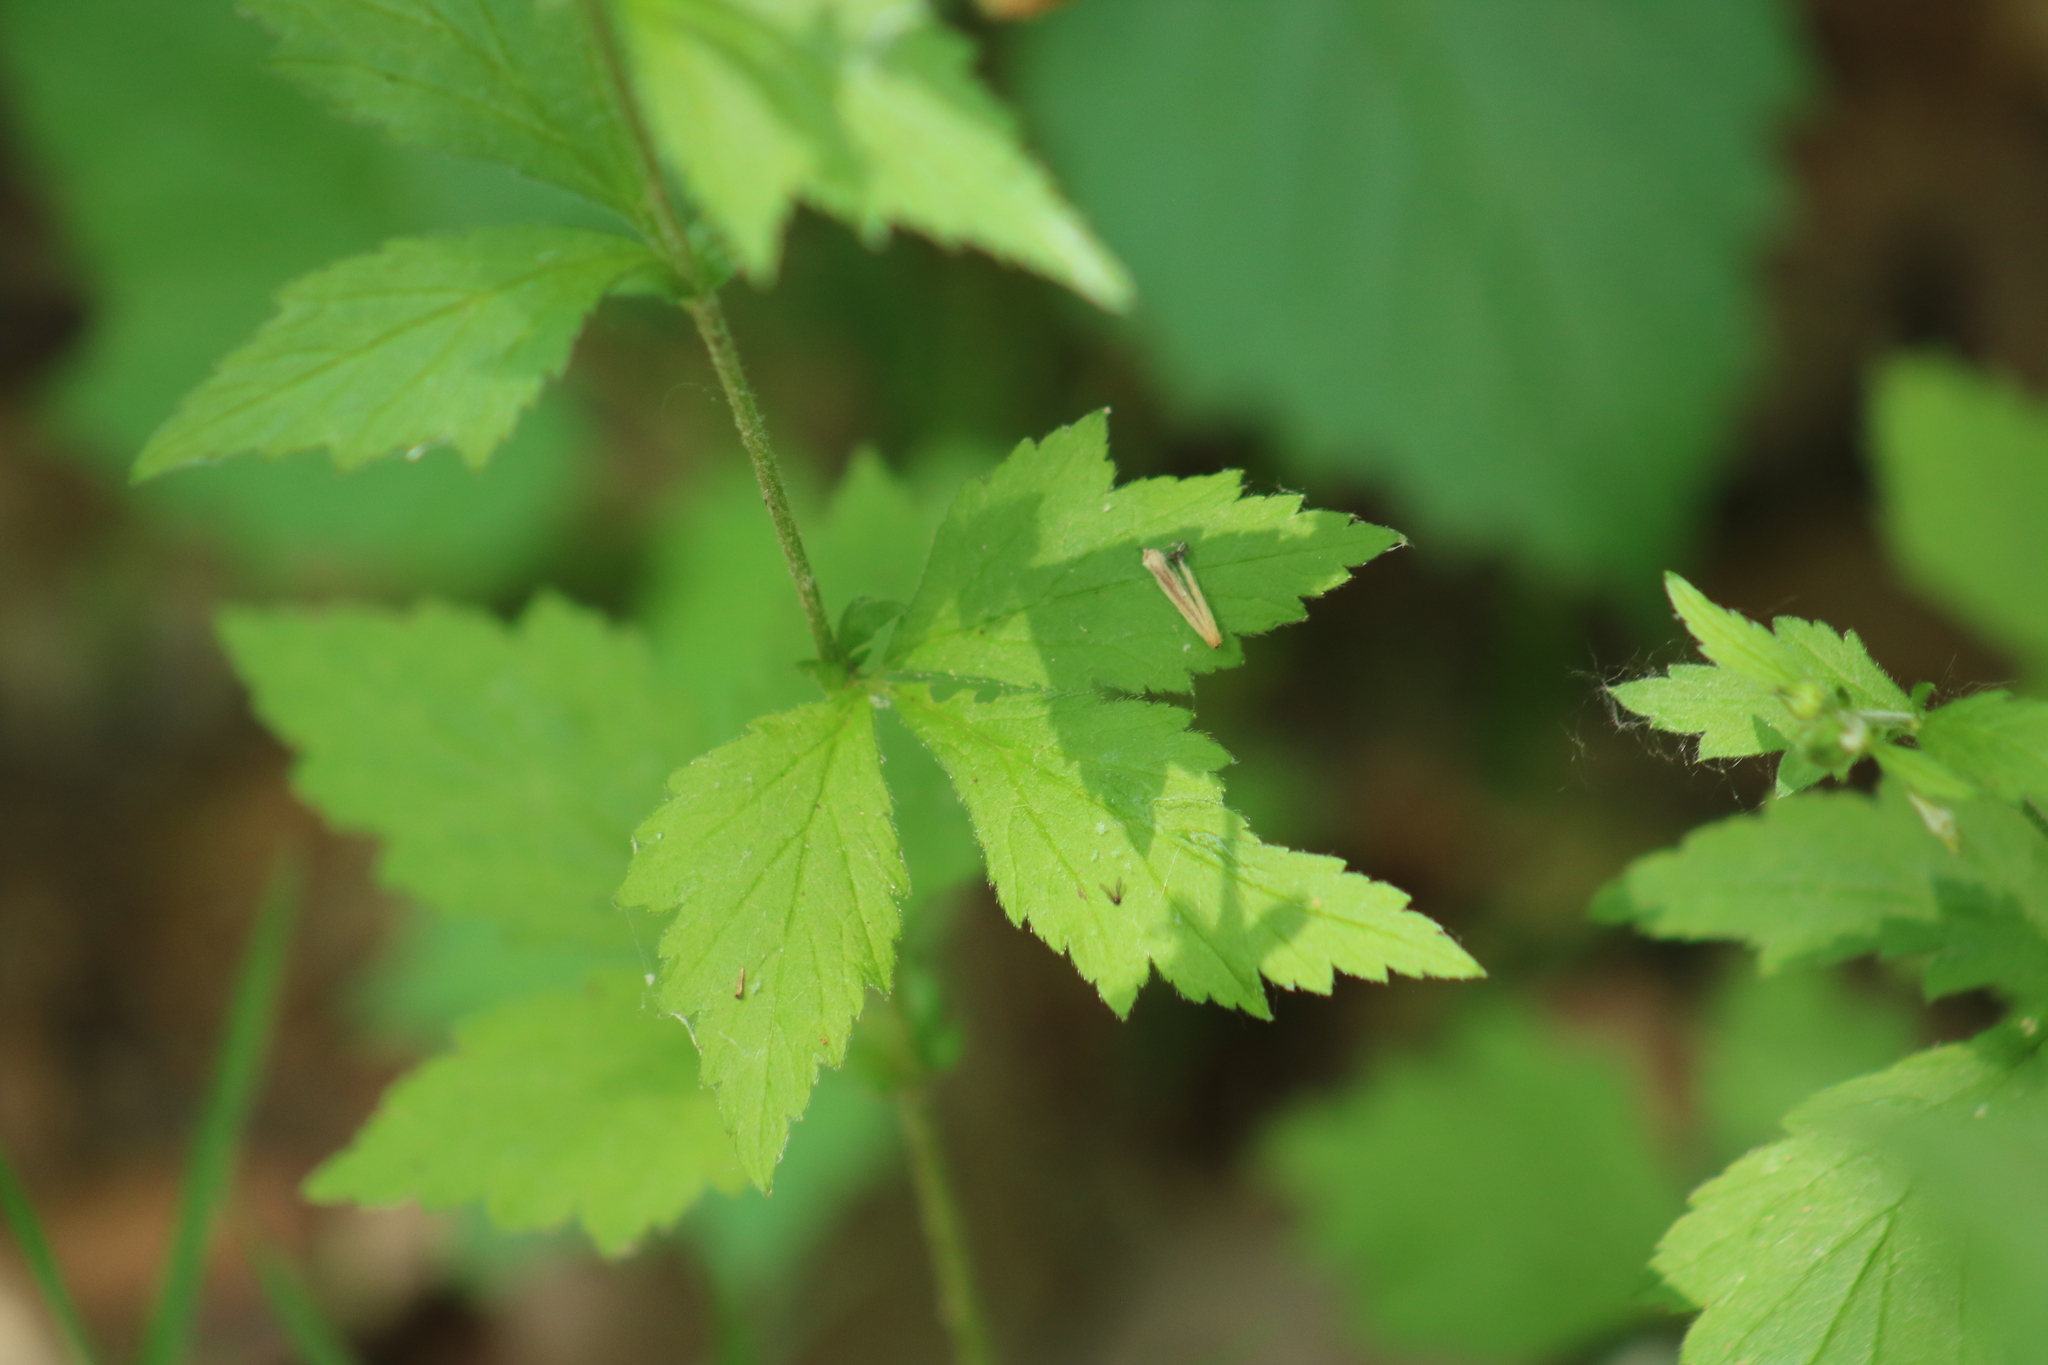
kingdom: Plantae
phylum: Tracheophyta
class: Magnoliopsida
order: Rosales
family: Rosaceae
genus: Geum
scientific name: Geum canadense
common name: White avens
